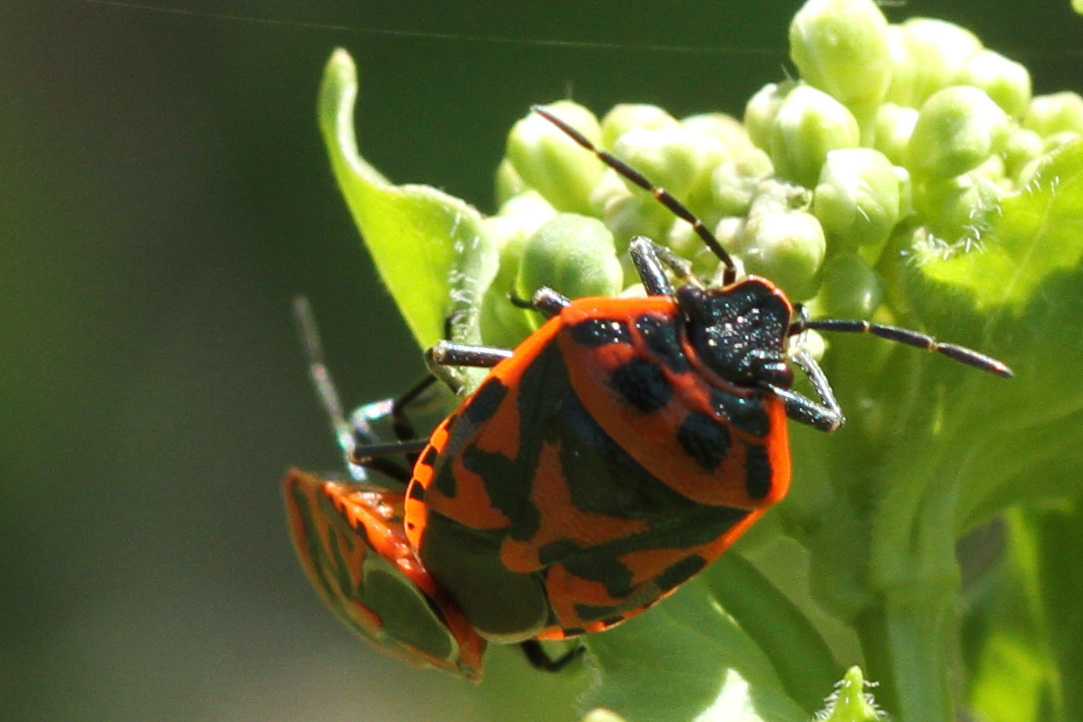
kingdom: Animalia
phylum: Arthropoda
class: Insecta
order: Hemiptera
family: Pentatomidae
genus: Eurydema
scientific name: Eurydema ornata
